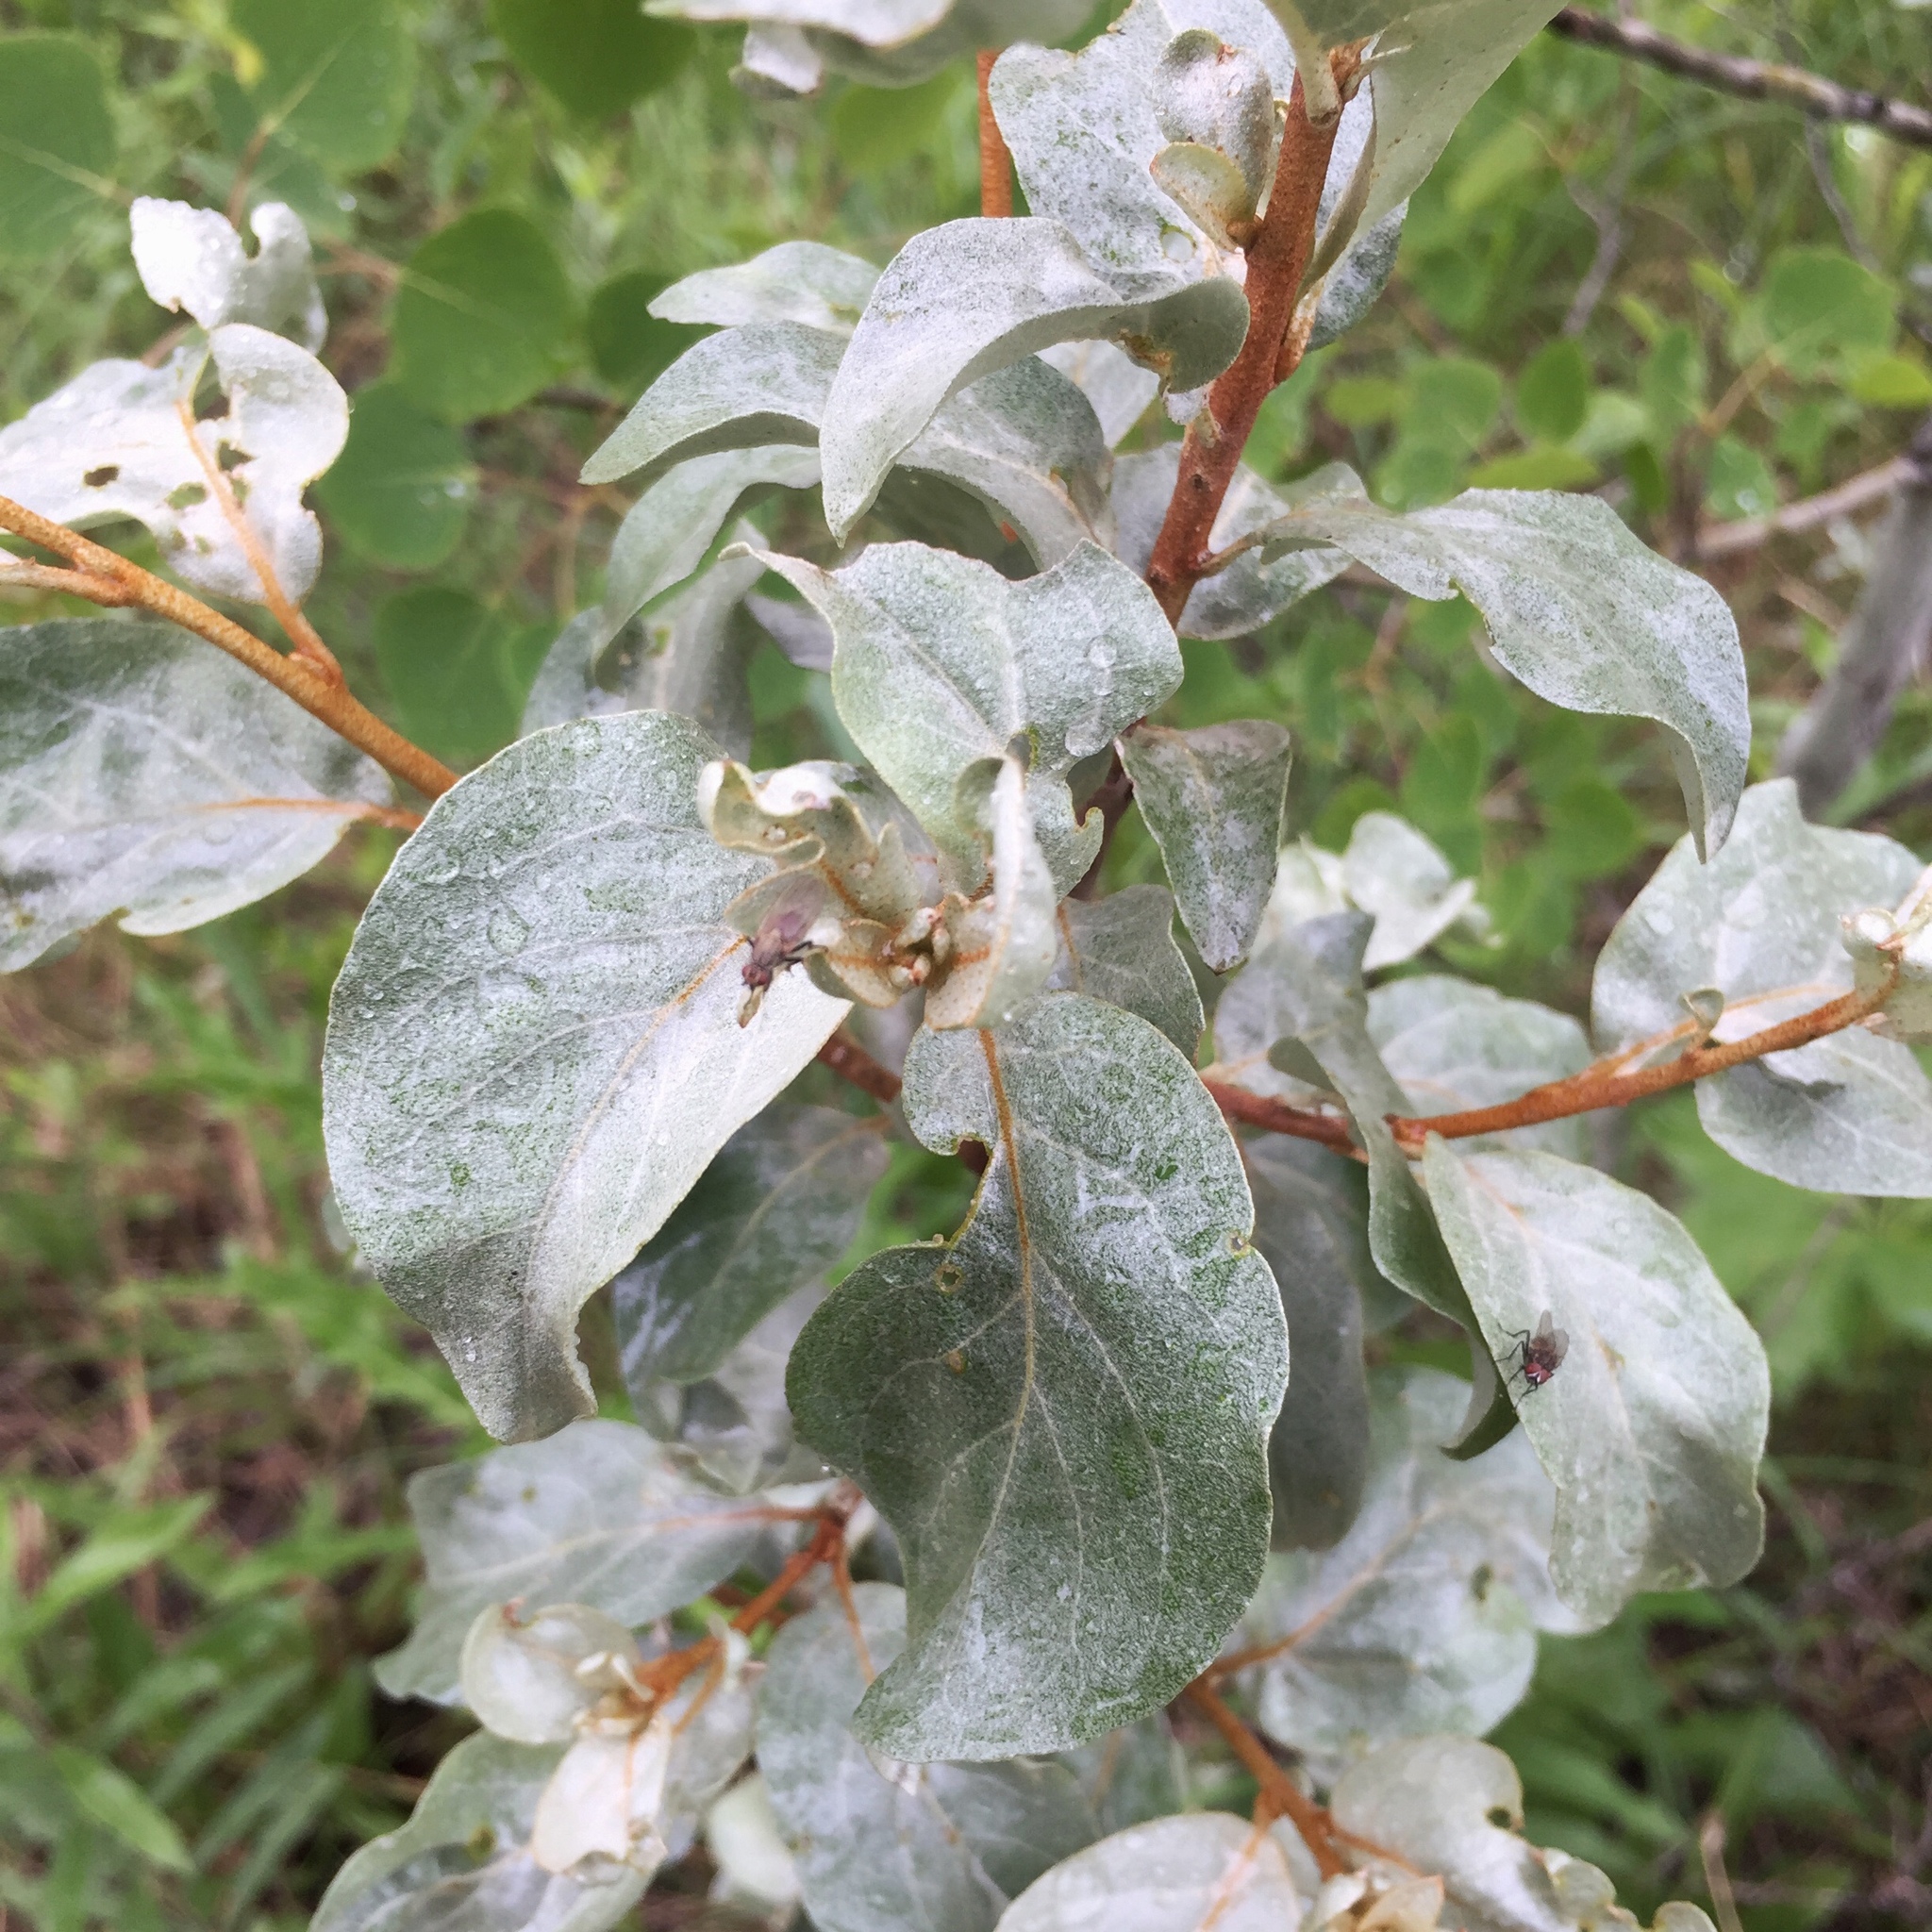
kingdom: Plantae
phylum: Tracheophyta
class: Magnoliopsida
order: Rosales
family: Elaeagnaceae
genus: Elaeagnus
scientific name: Elaeagnus commutata
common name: Silverberry
